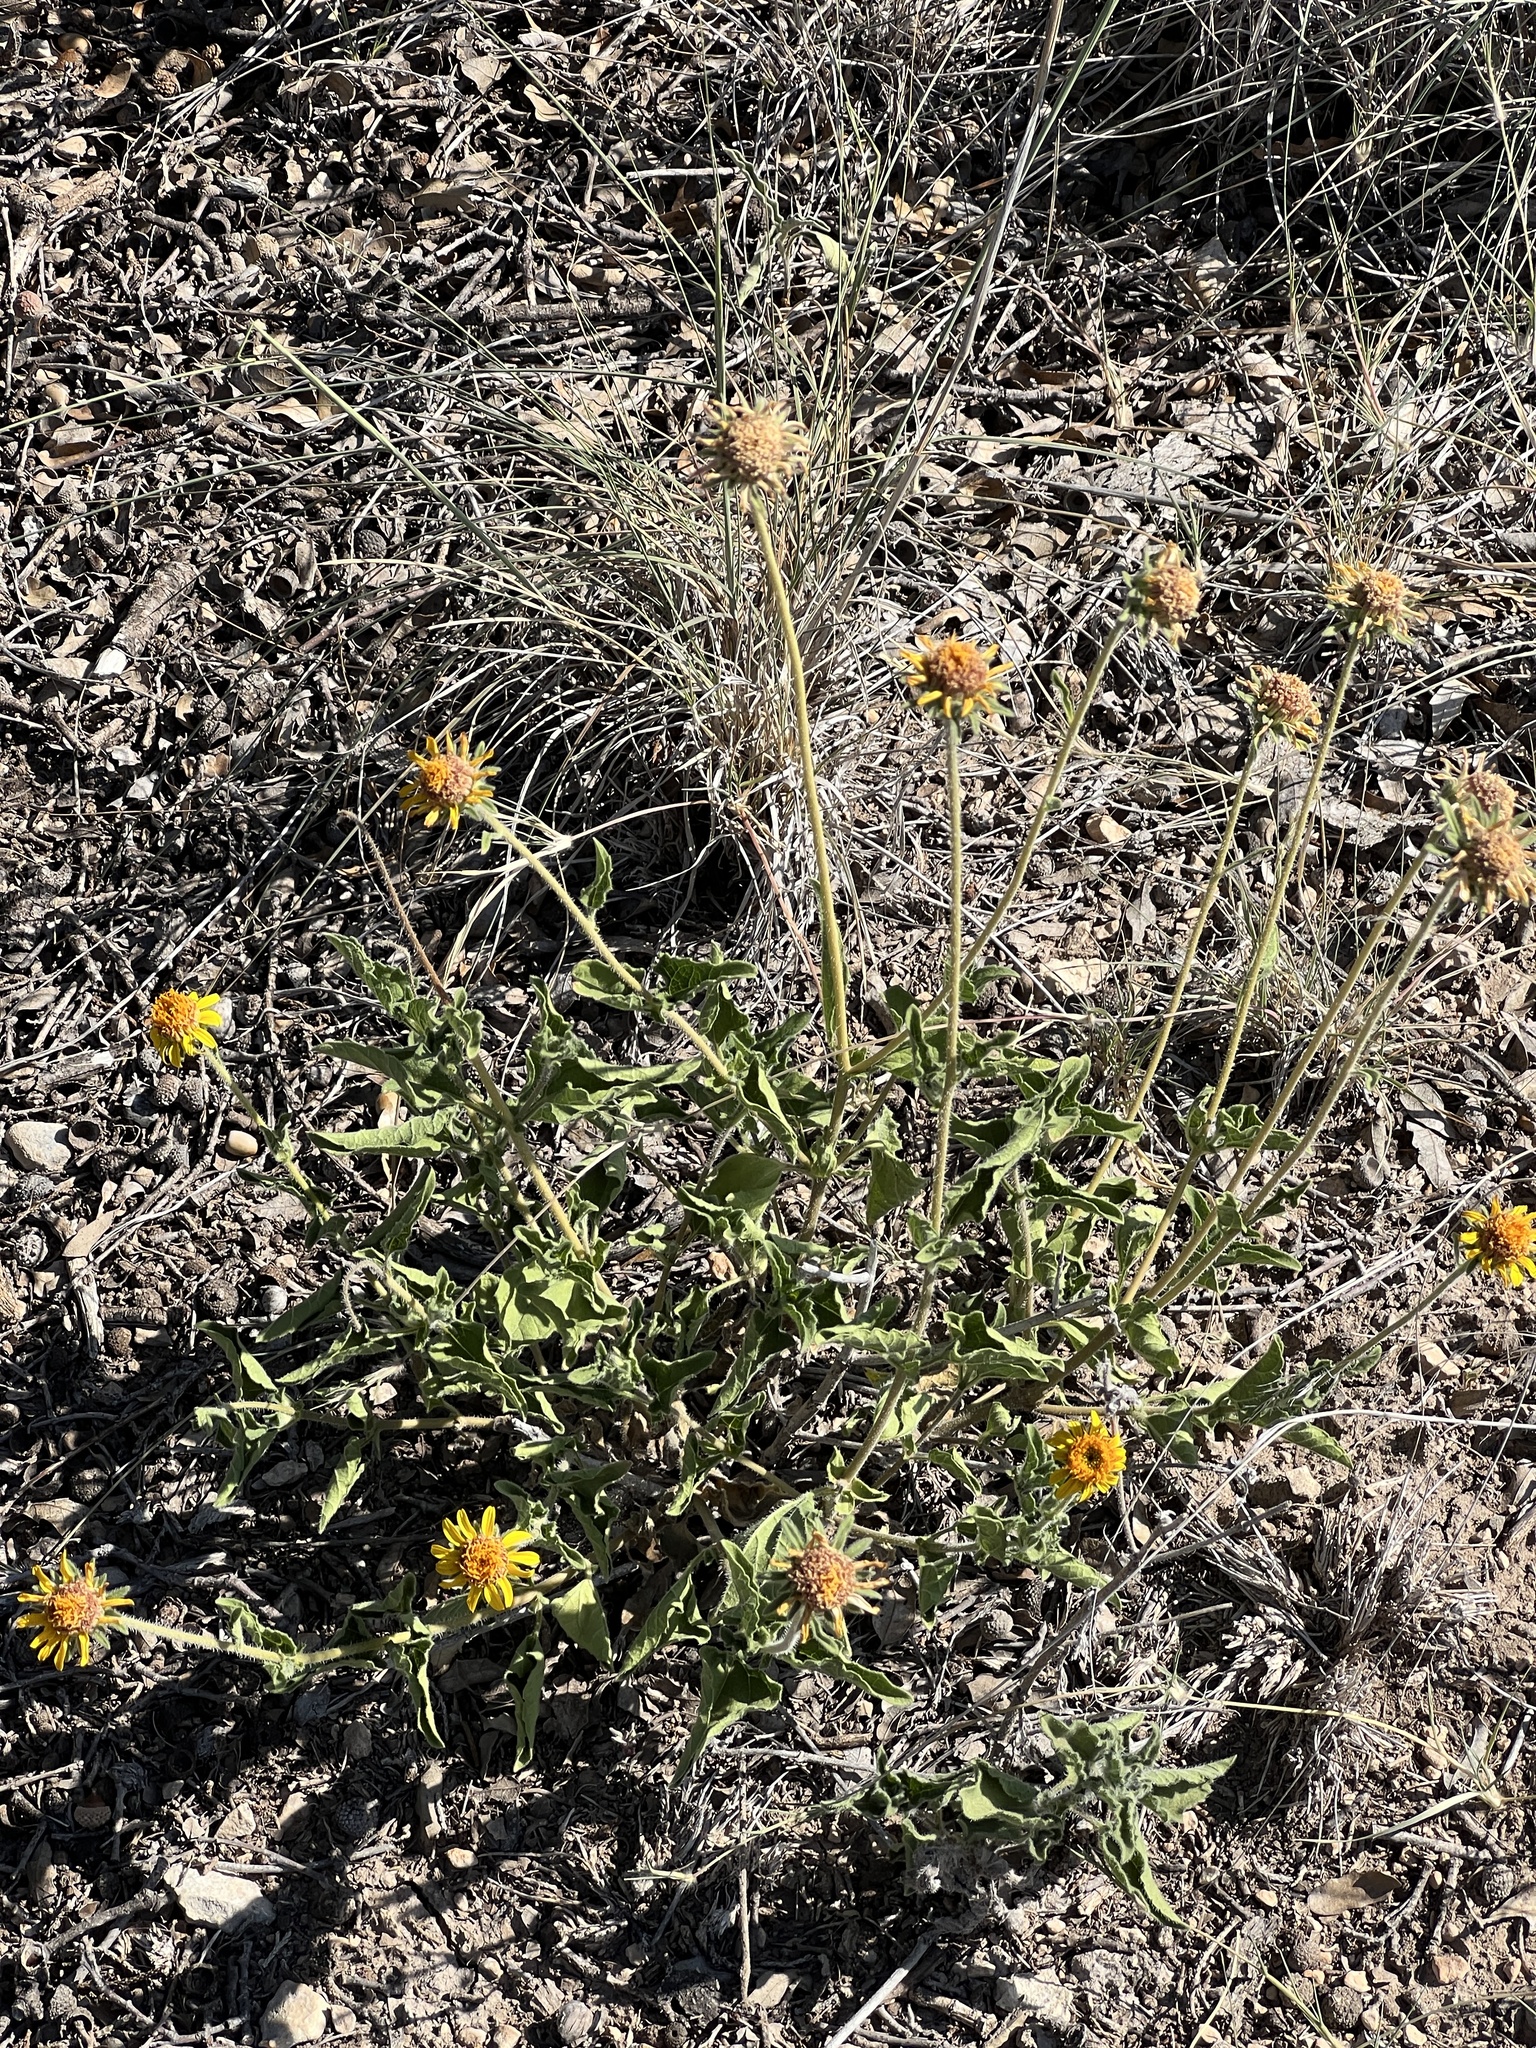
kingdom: Plantae
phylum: Tracheophyta
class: Magnoliopsida
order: Asterales
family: Asteraceae
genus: Simsia
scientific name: Simsia calva
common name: Awnless bush-sunflower
